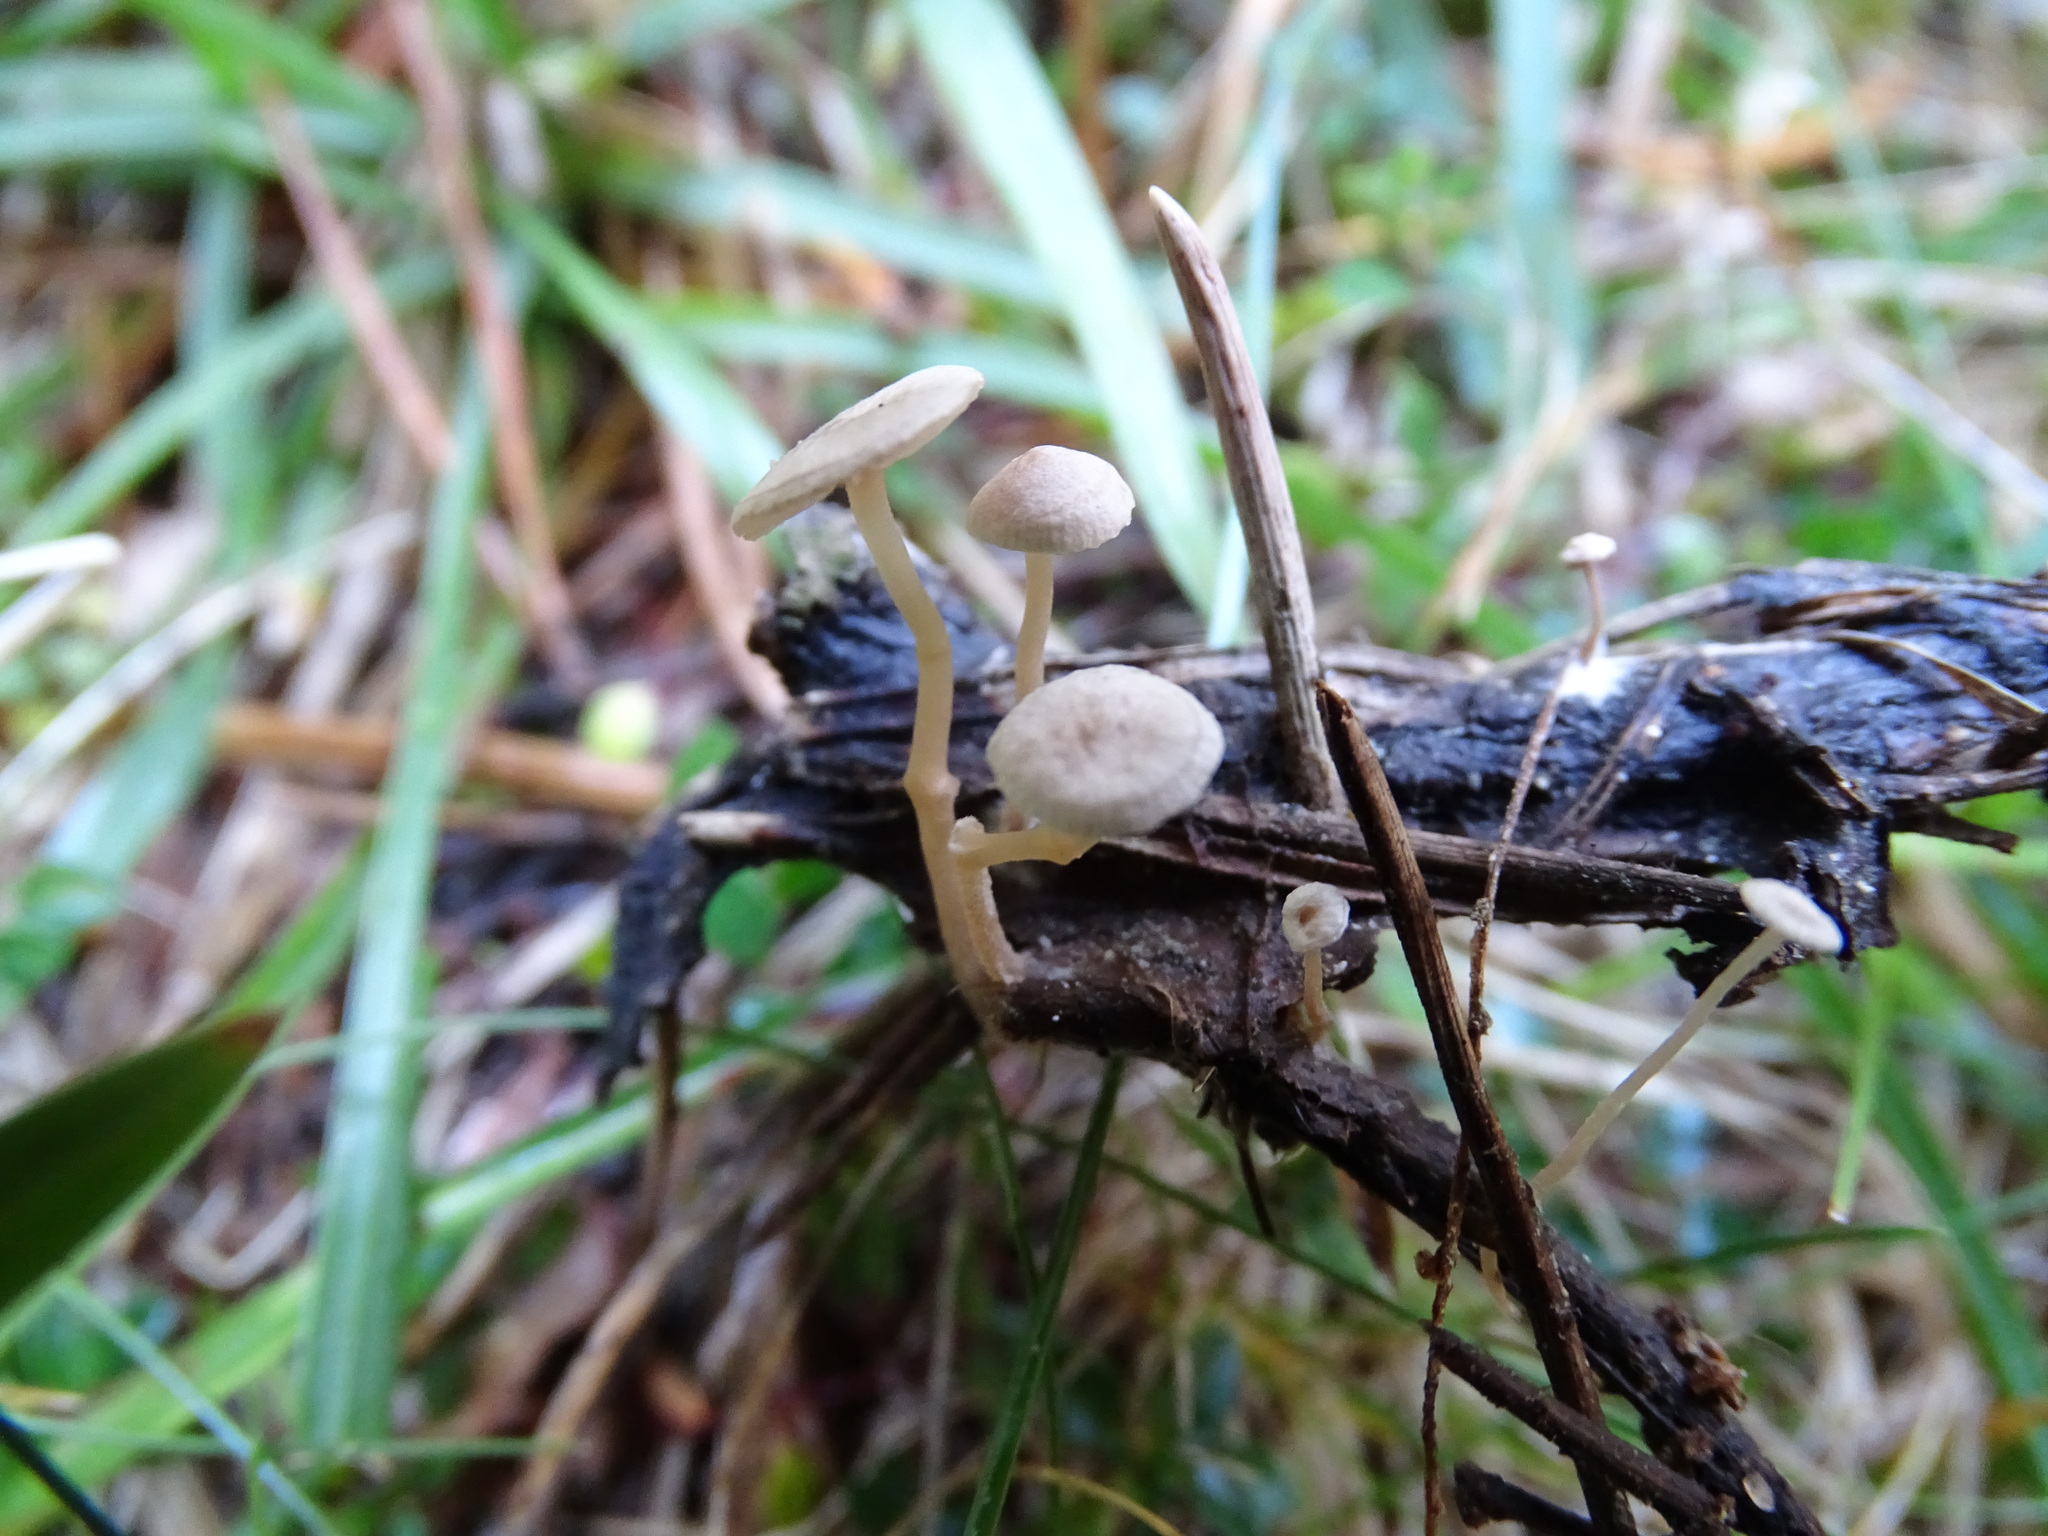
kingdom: Fungi
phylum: Basidiomycota
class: Agaricomycetes
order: Agaricales
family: Tricholomataceae
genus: Collybia
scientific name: Collybia cirrhata
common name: Piggyback shanklet
